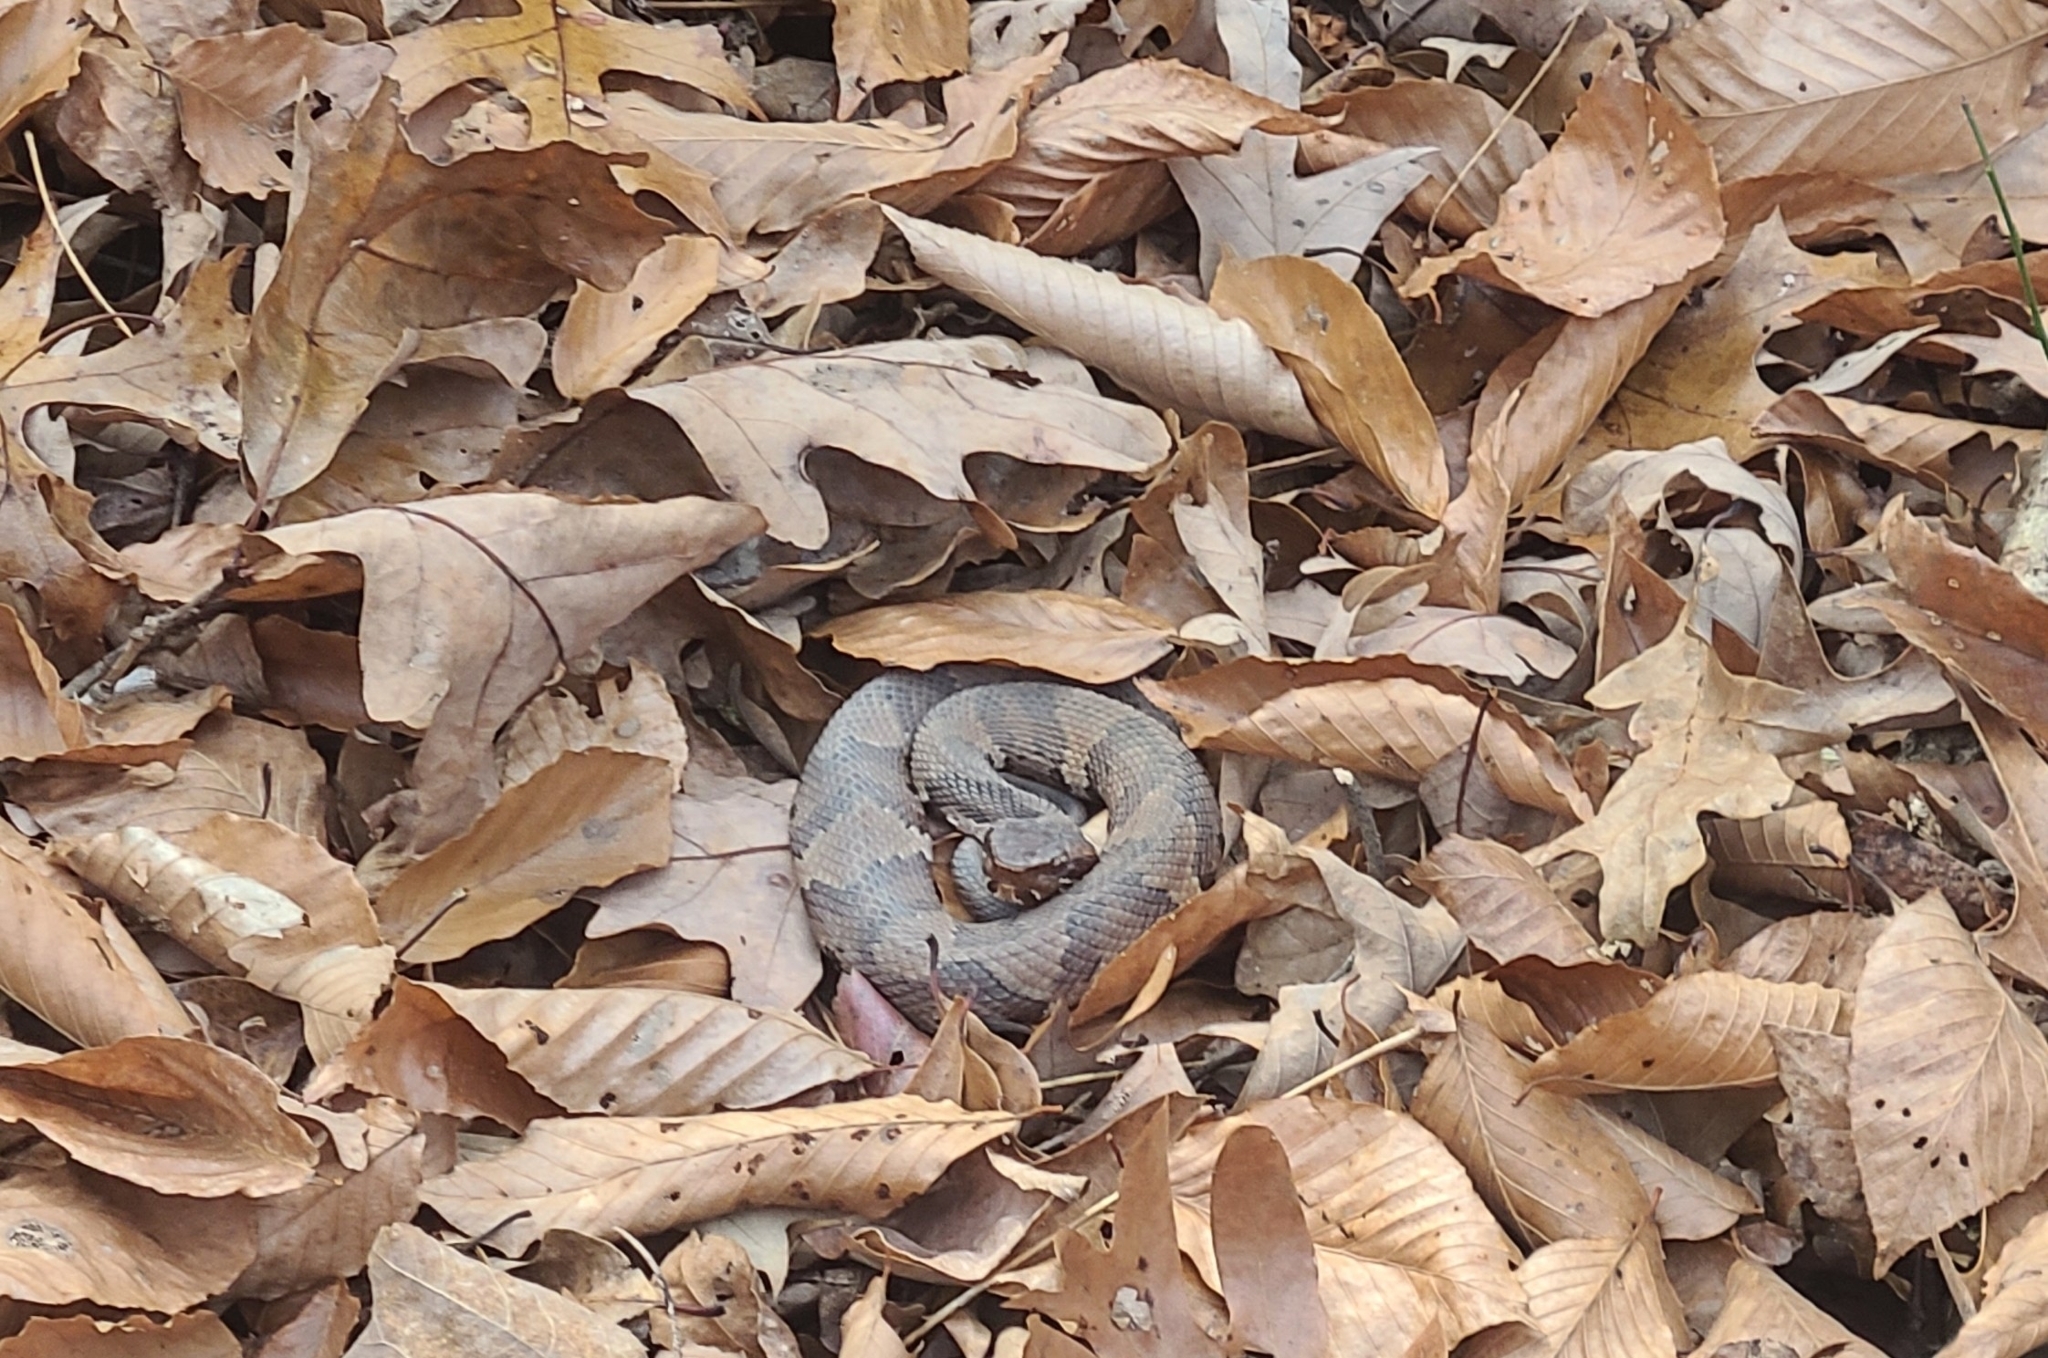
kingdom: Animalia
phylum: Chordata
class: Squamata
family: Viperidae
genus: Agkistrodon
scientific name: Agkistrodon piscivorus
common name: Cottonmouth
